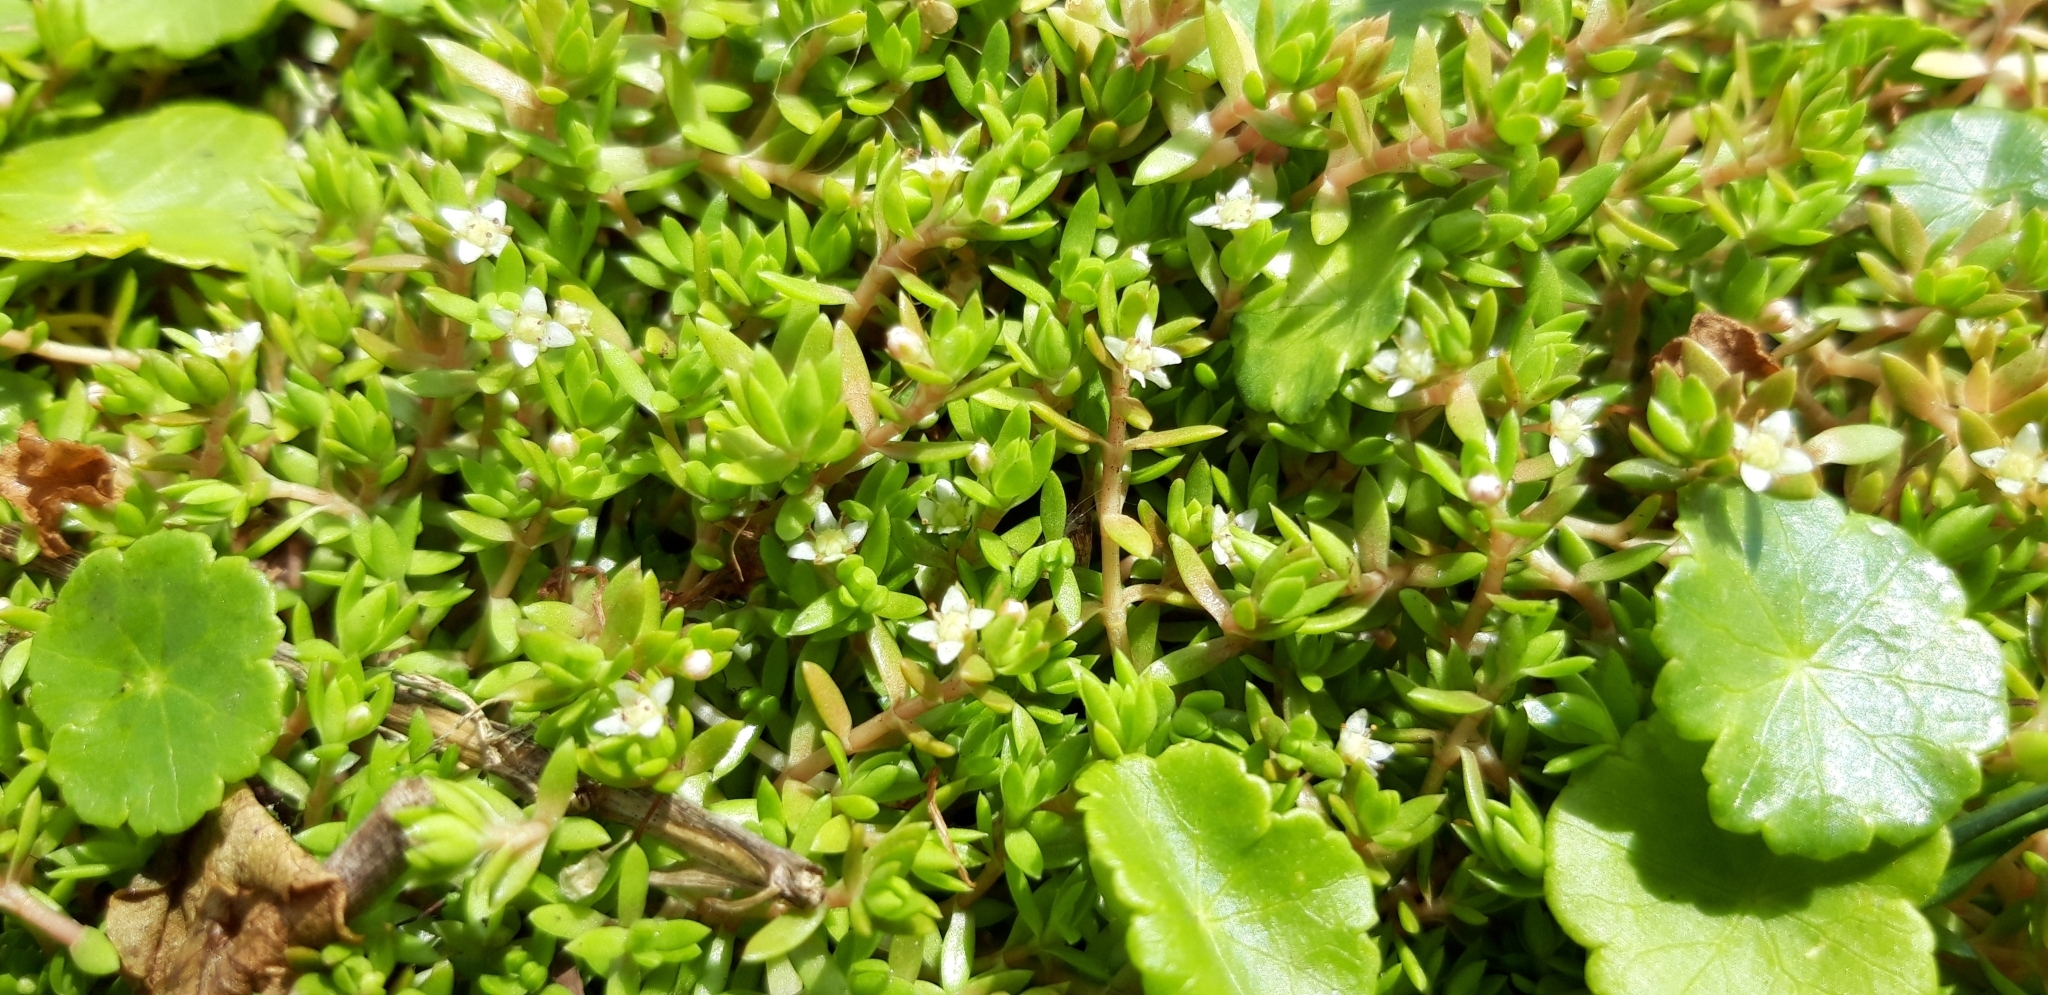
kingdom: Plantae
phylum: Tracheophyta
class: Magnoliopsida
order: Apiales
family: Araliaceae
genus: Hydrocotyle
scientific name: Hydrocotyle vulgaris
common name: Marsh pennywort
